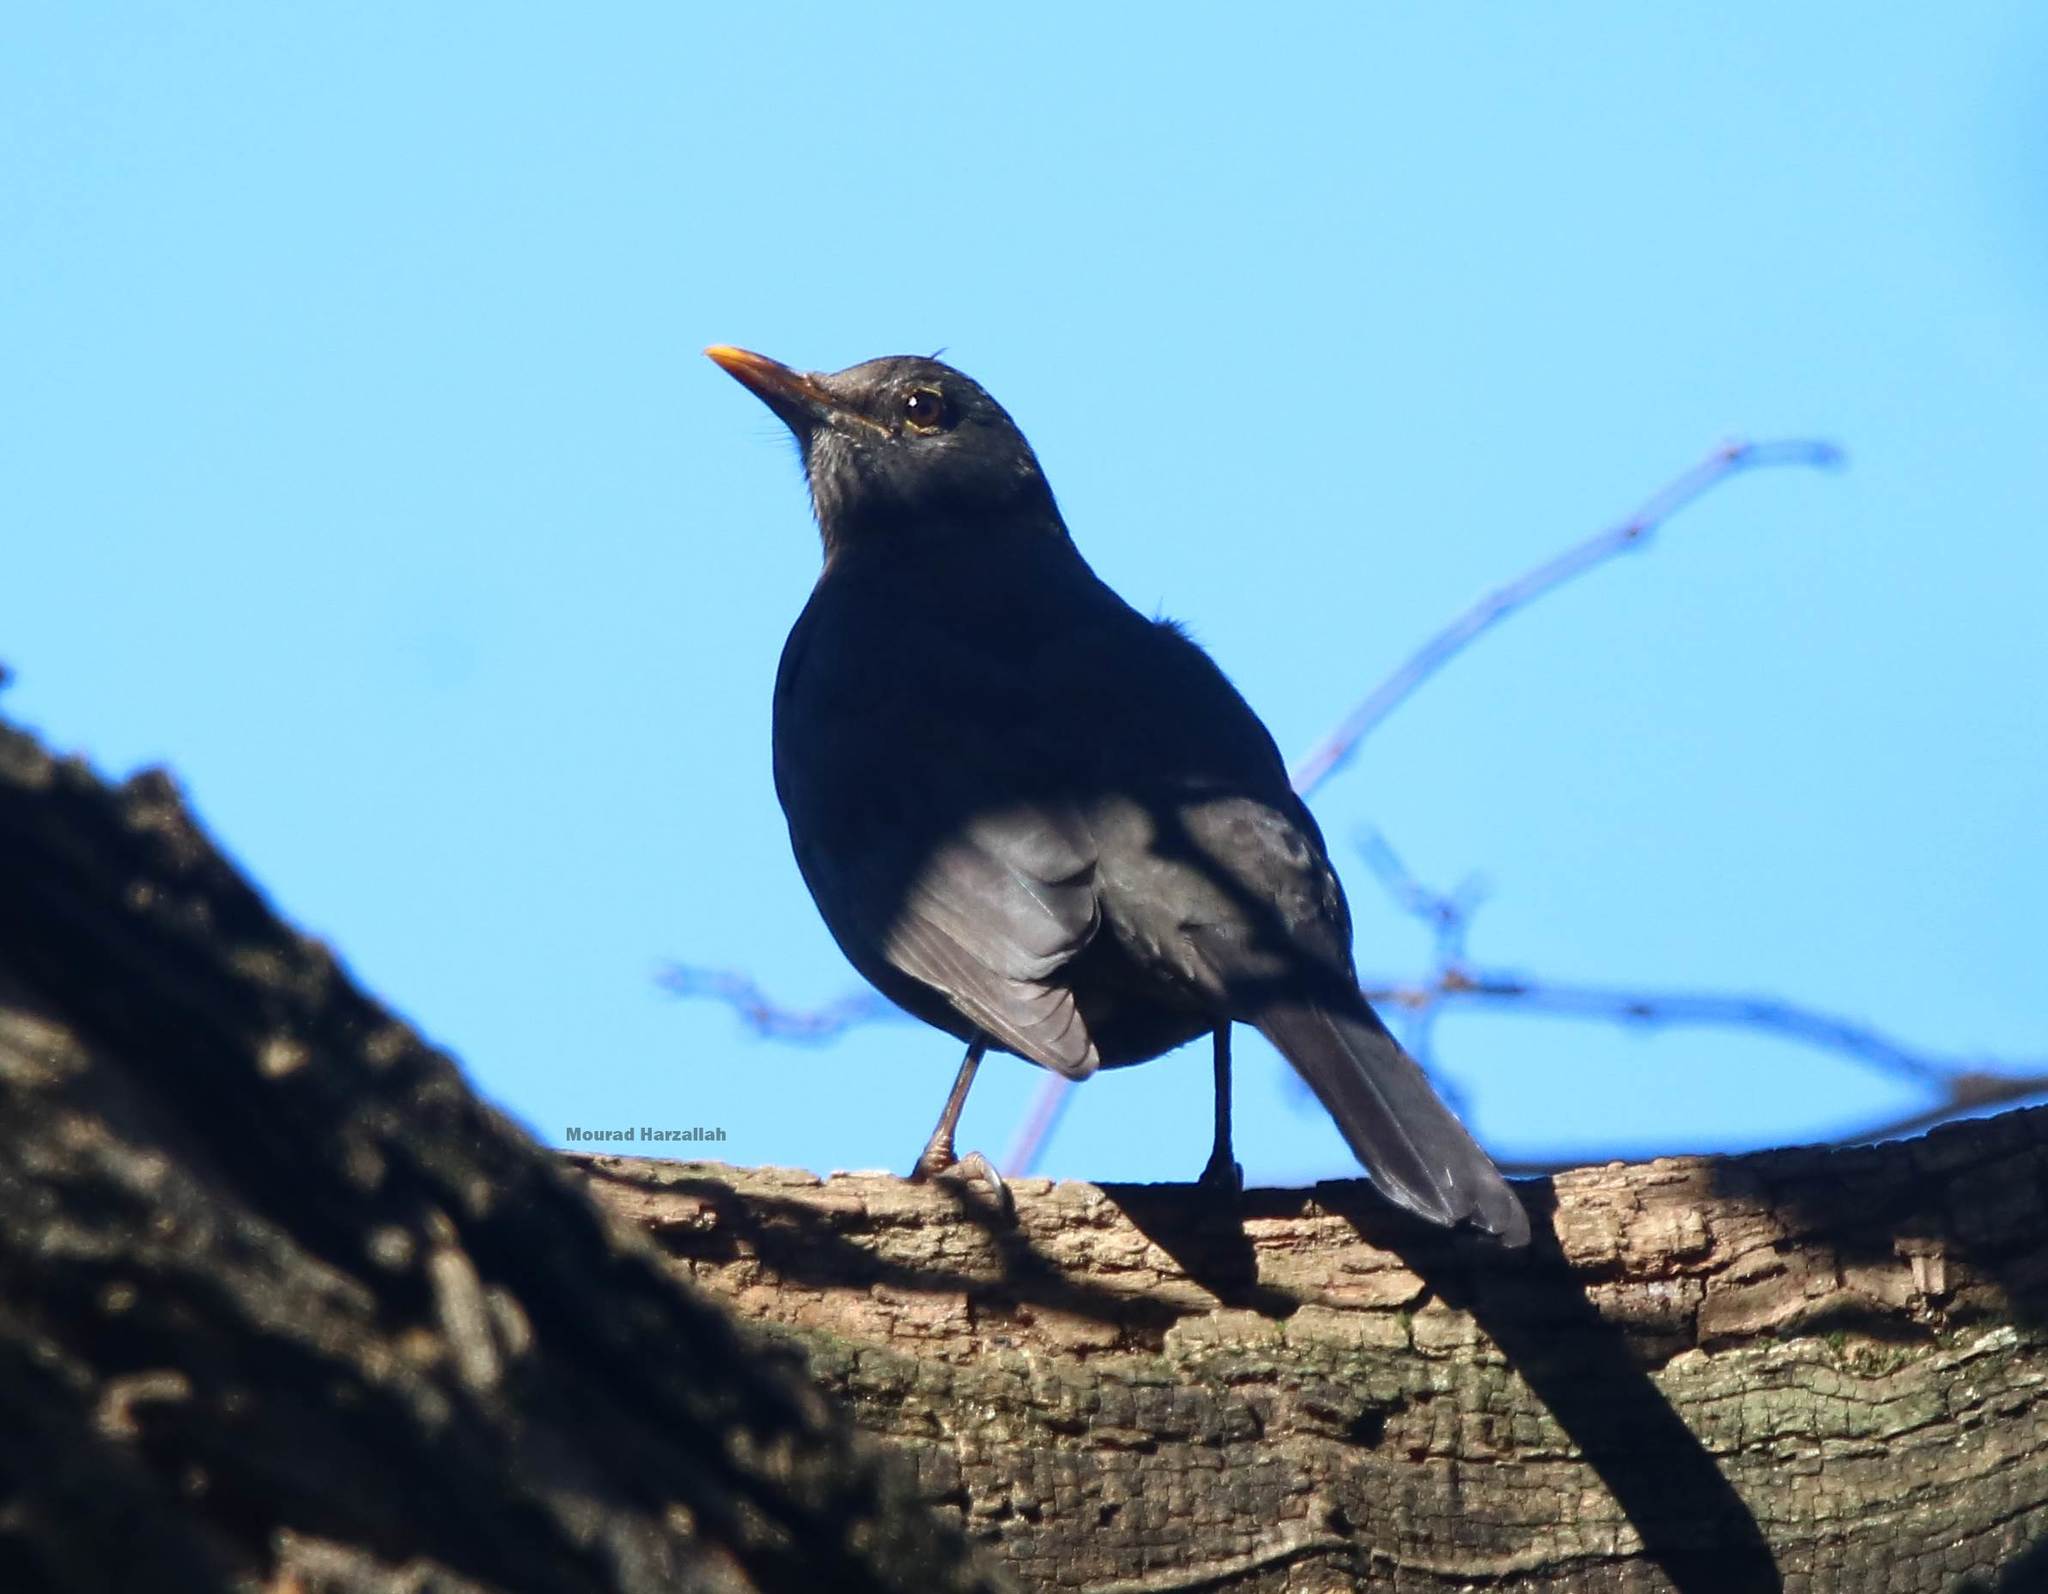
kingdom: Animalia
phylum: Chordata
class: Aves
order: Passeriformes
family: Turdidae
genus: Turdus
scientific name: Turdus merula
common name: Common blackbird
